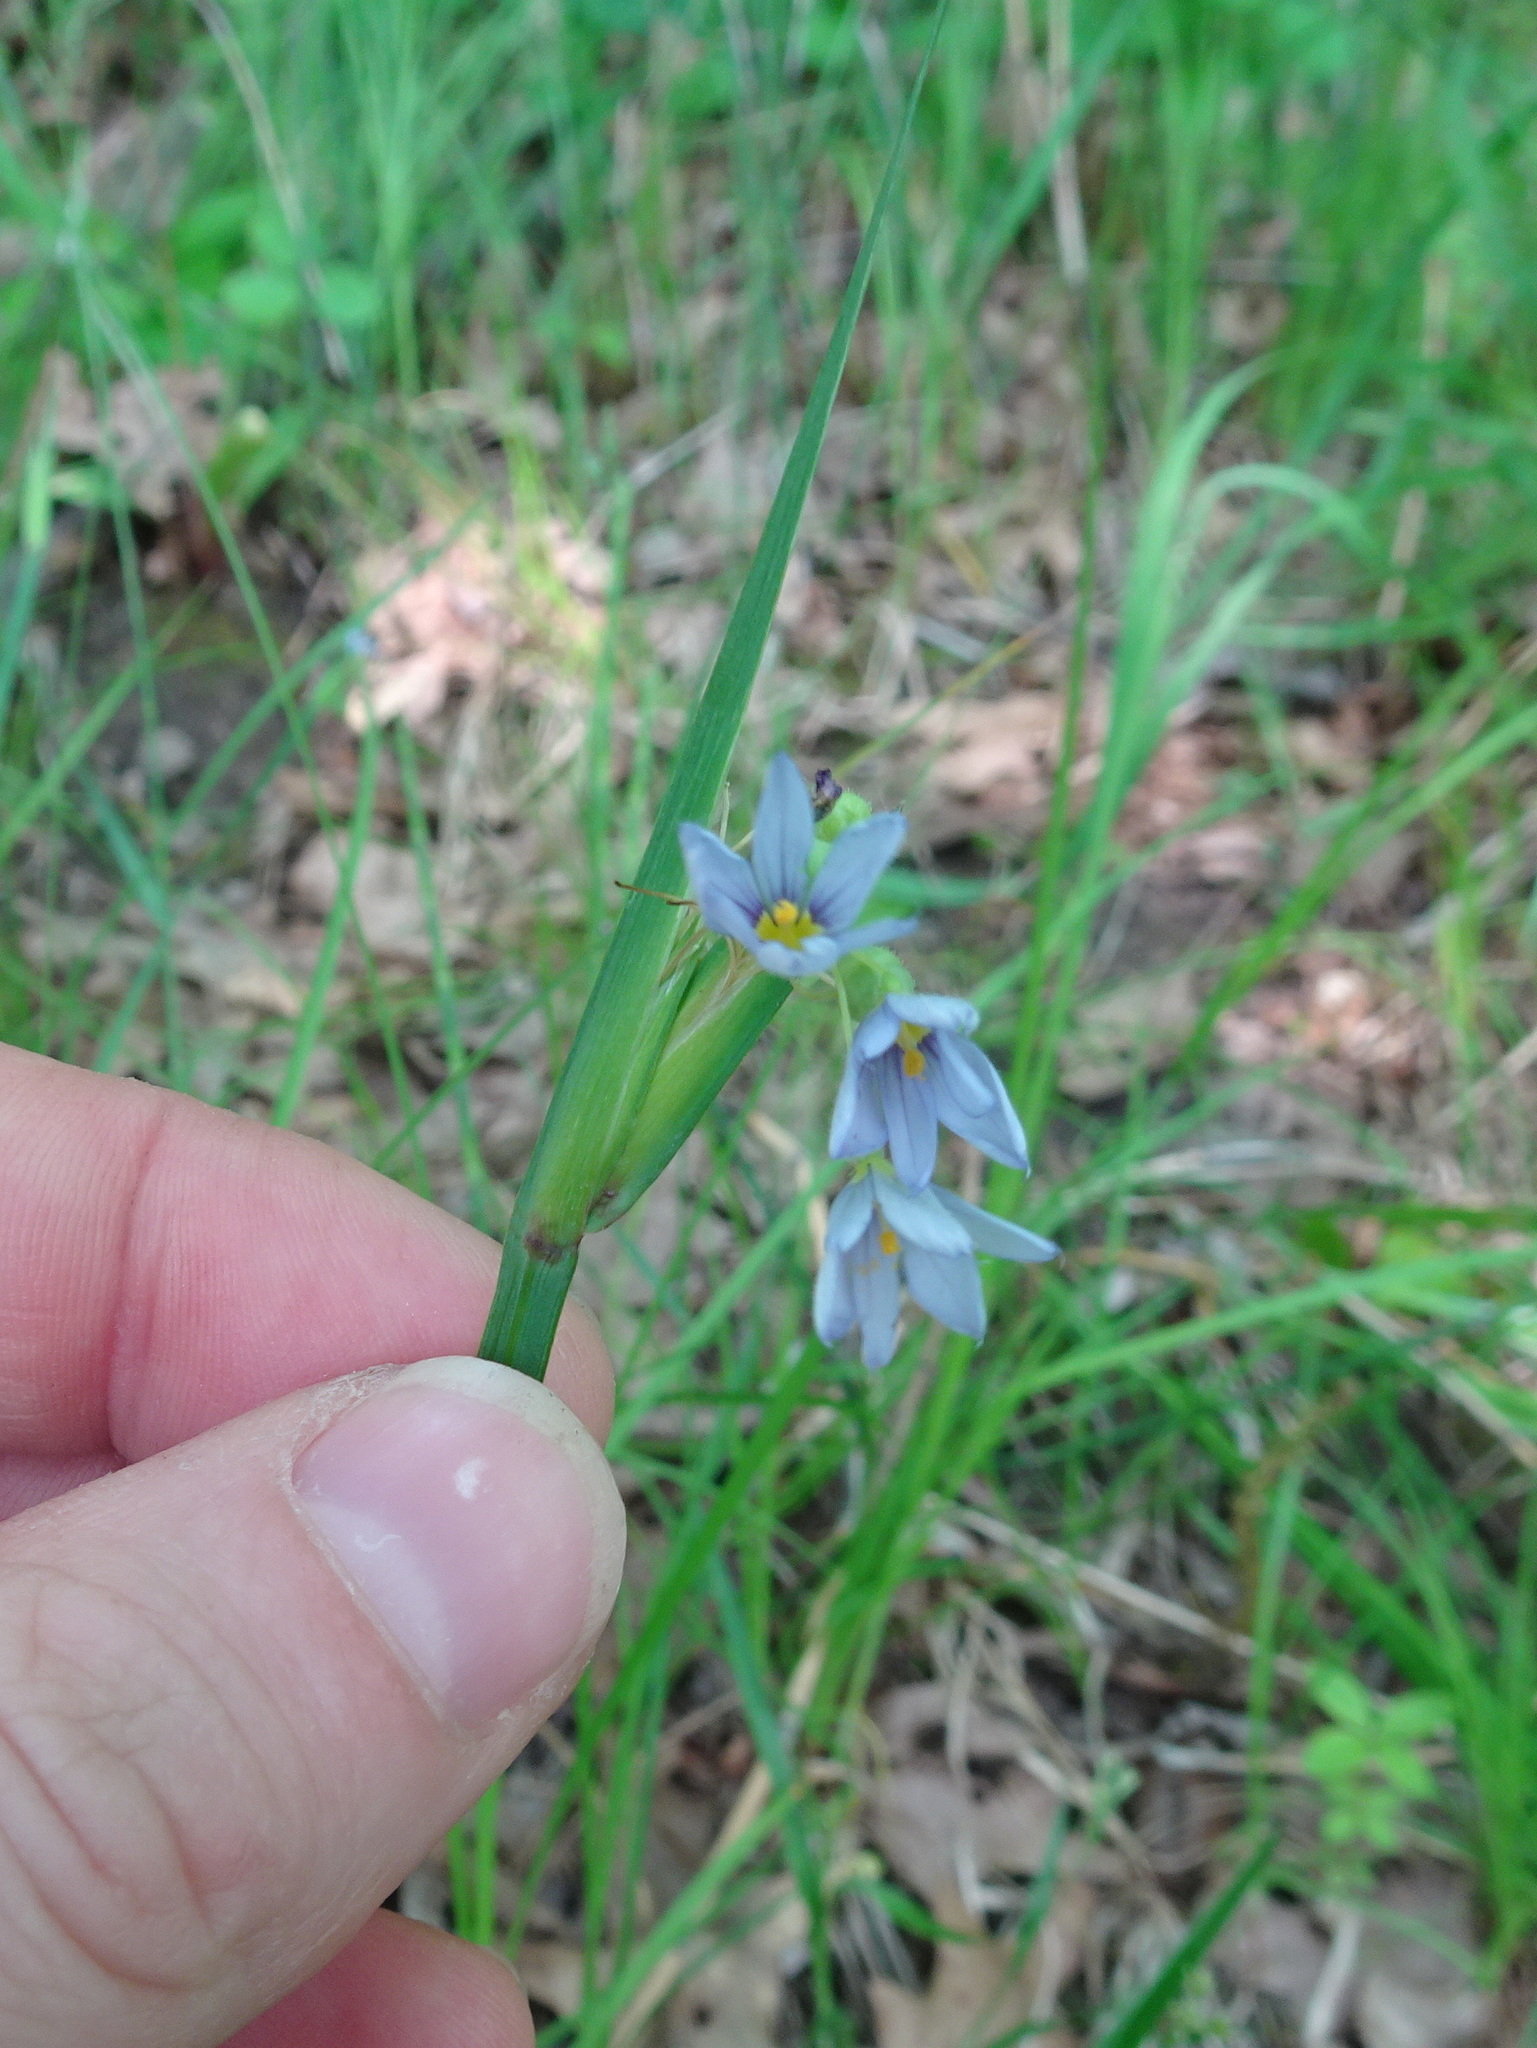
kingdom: Plantae
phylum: Tracheophyta
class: Liliopsida
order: Asparagales
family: Iridaceae
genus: Sisyrinchium
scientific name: Sisyrinchium albidum
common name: Pale blue-eyed-grass
